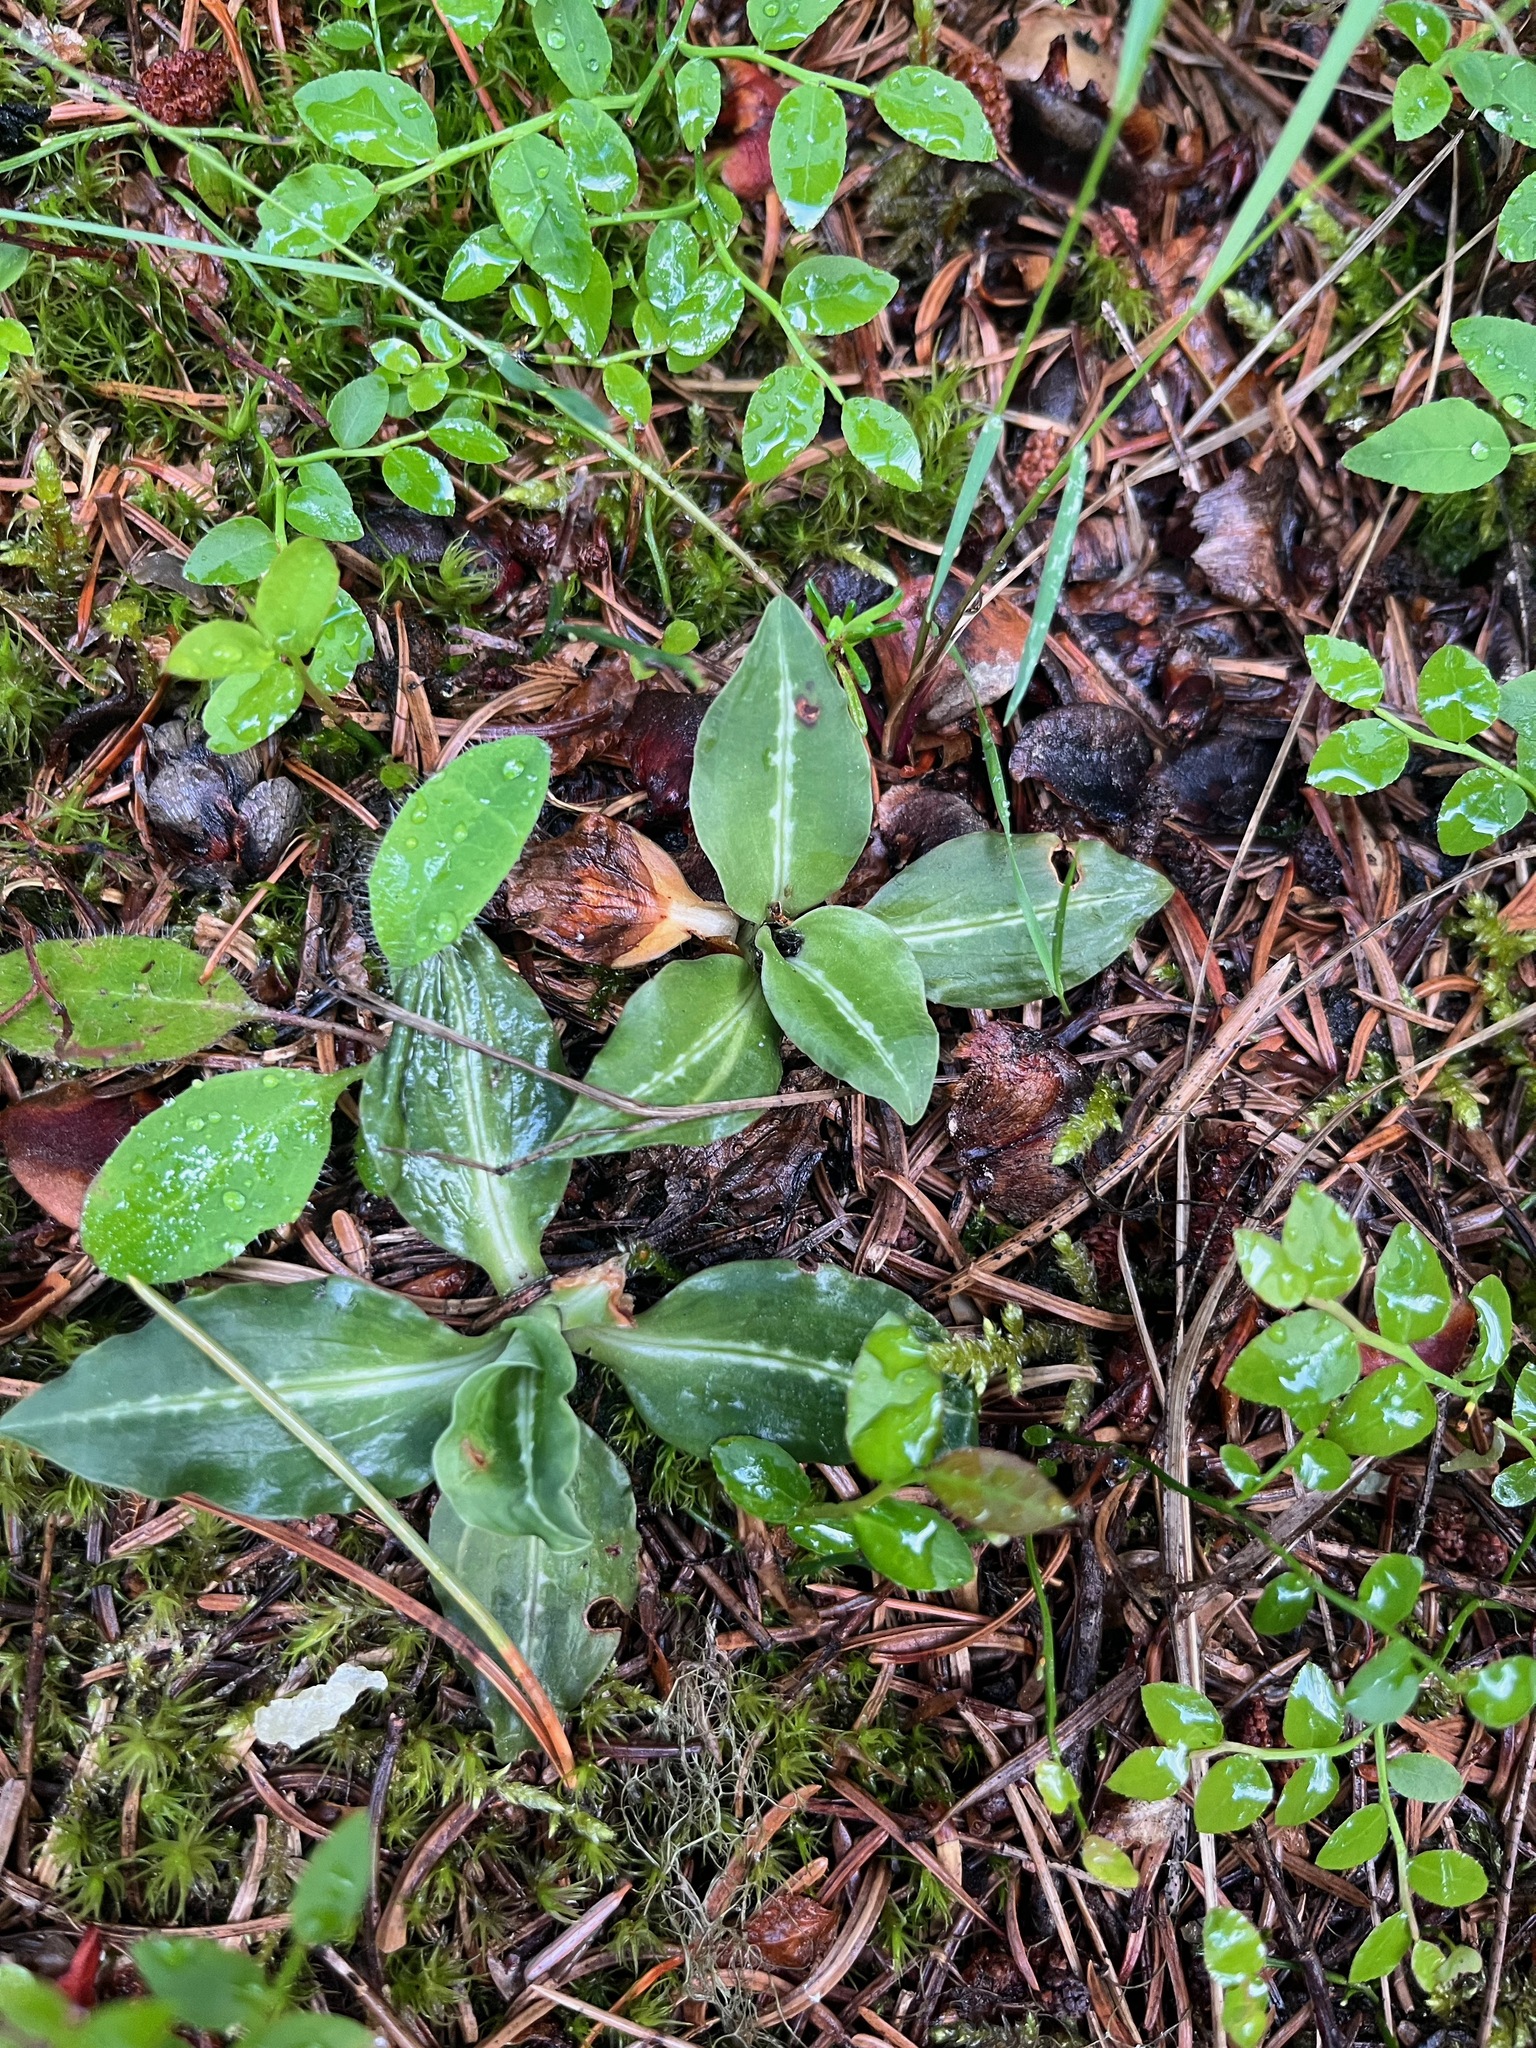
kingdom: Plantae
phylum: Tracheophyta
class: Liliopsida
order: Asparagales
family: Orchidaceae
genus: Goodyera
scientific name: Goodyera oblongifolia
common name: Giant rattlesnake-plantain
